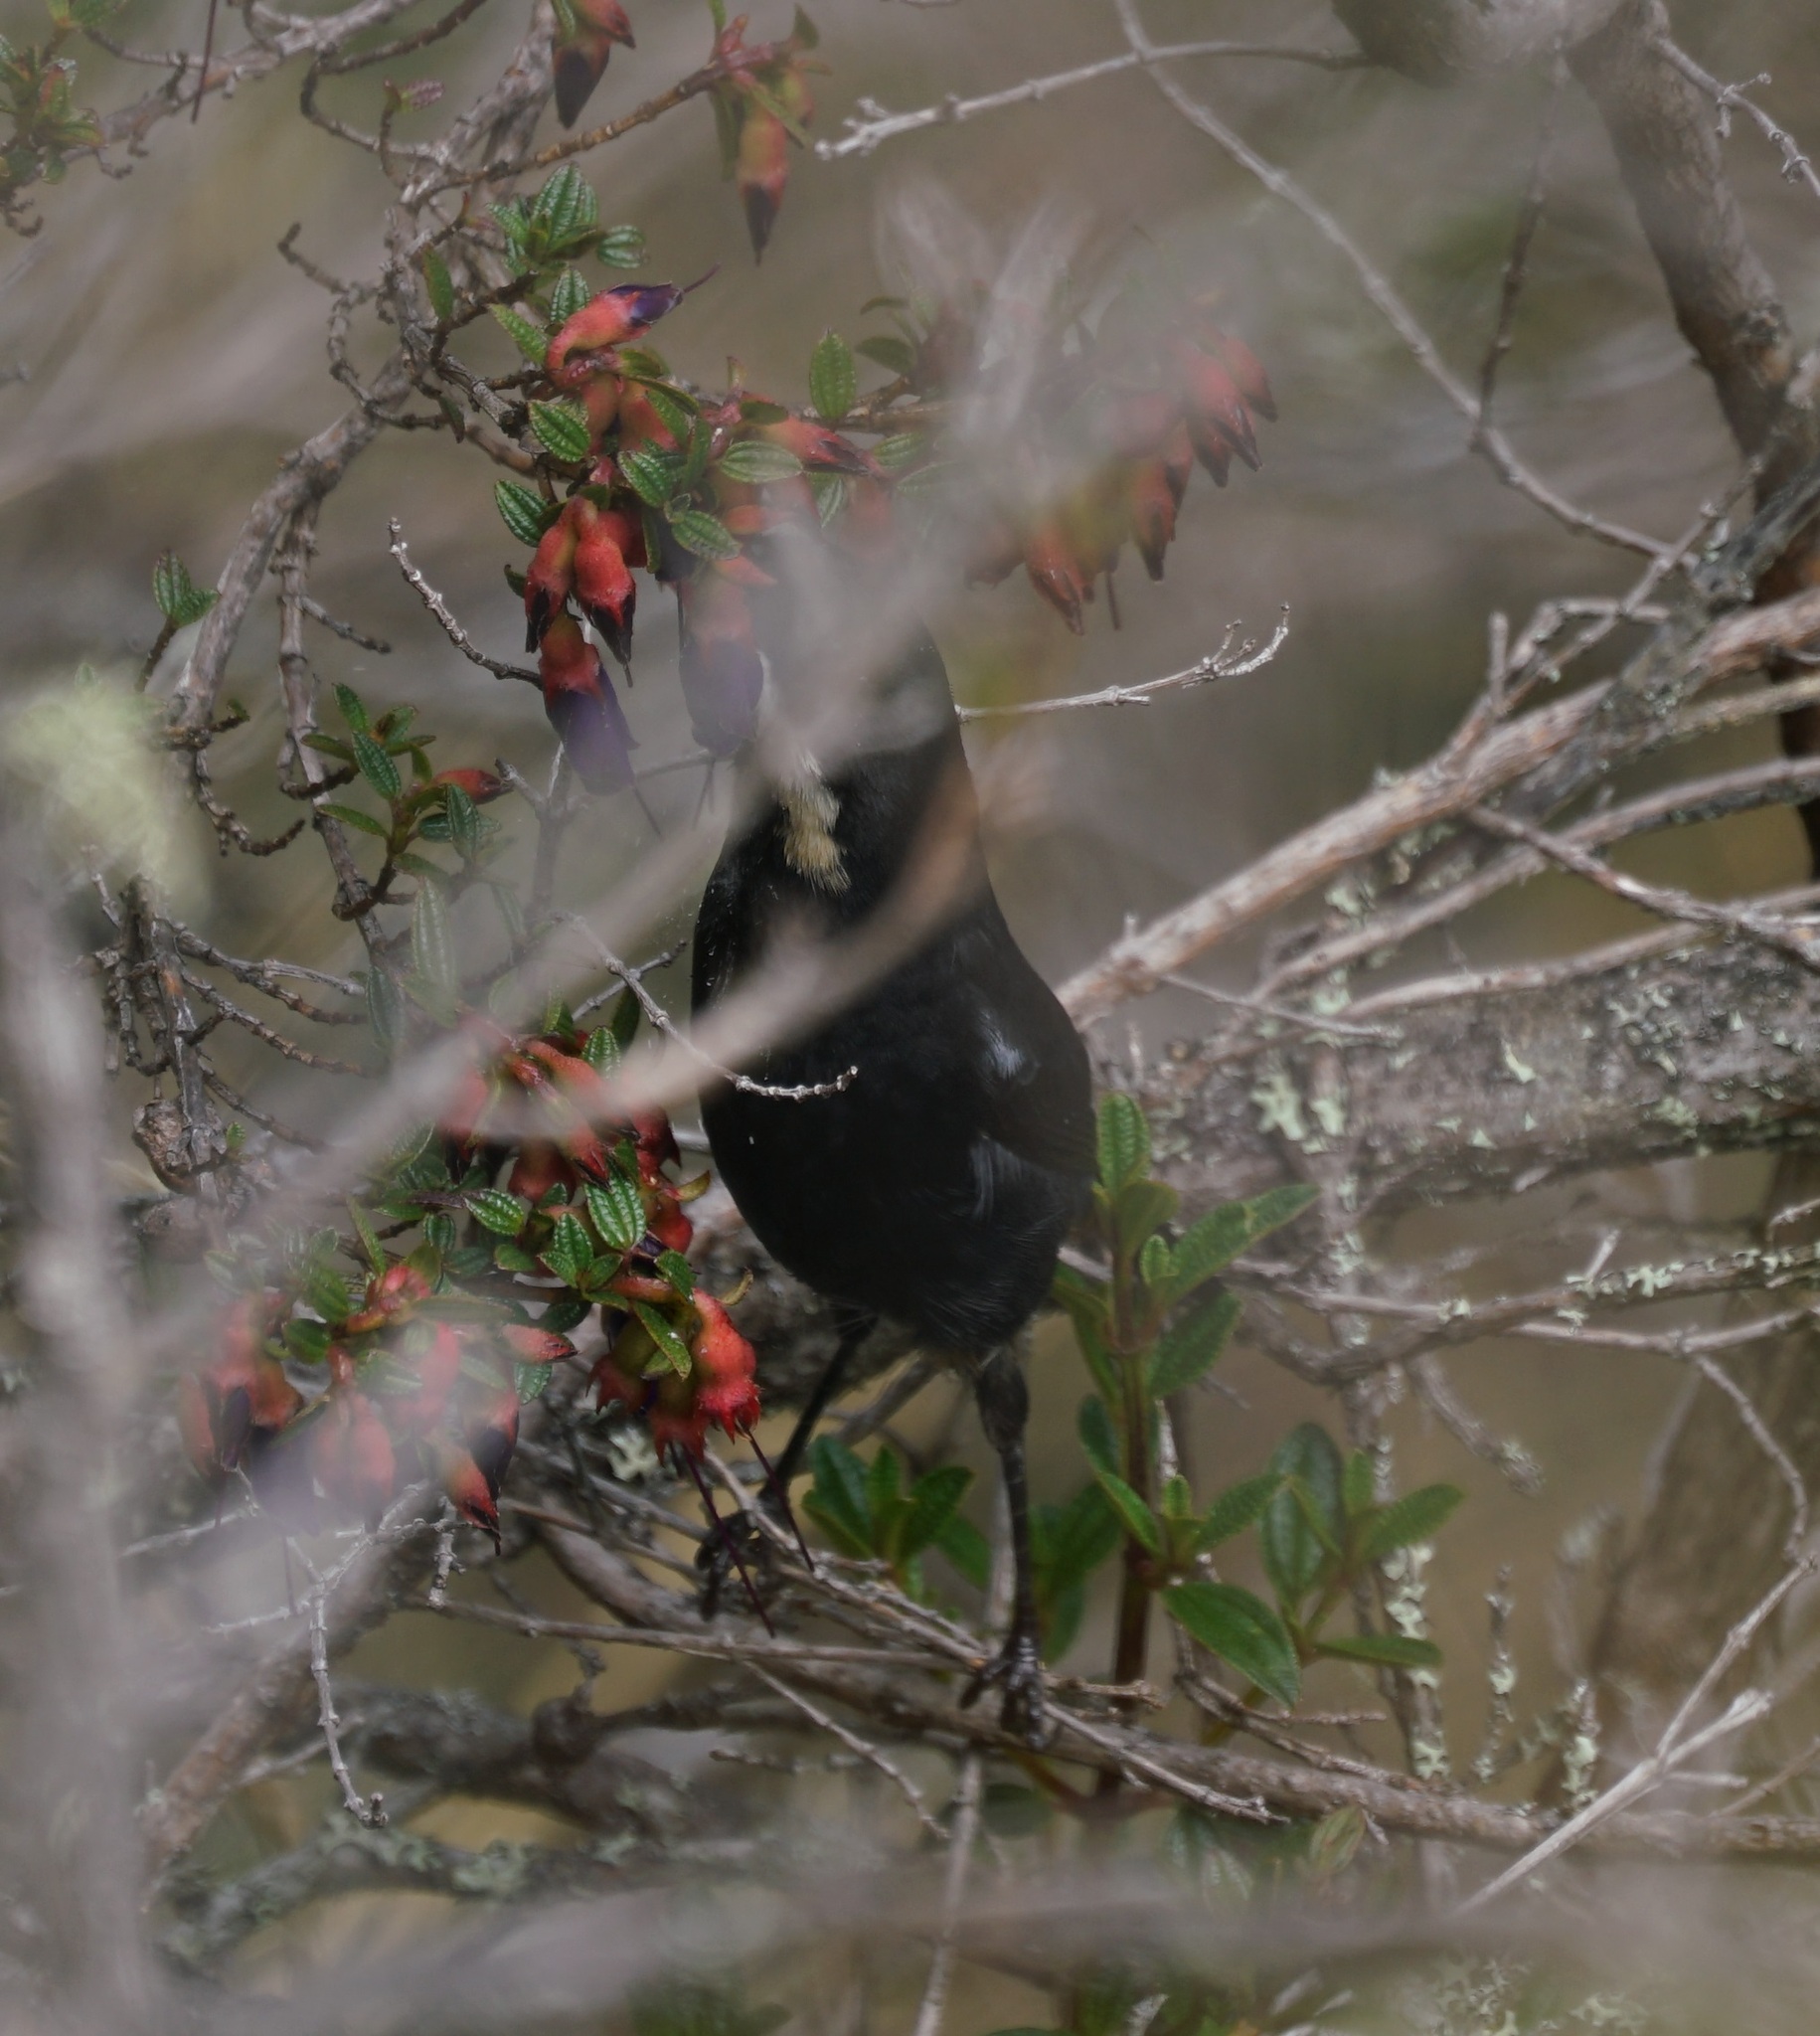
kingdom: Animalia
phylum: Chordata
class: Aves
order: Passeriformes
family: Thraupidae
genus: Diglossa
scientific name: Diglossa mystacalis
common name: Moustached flowerpiercer
